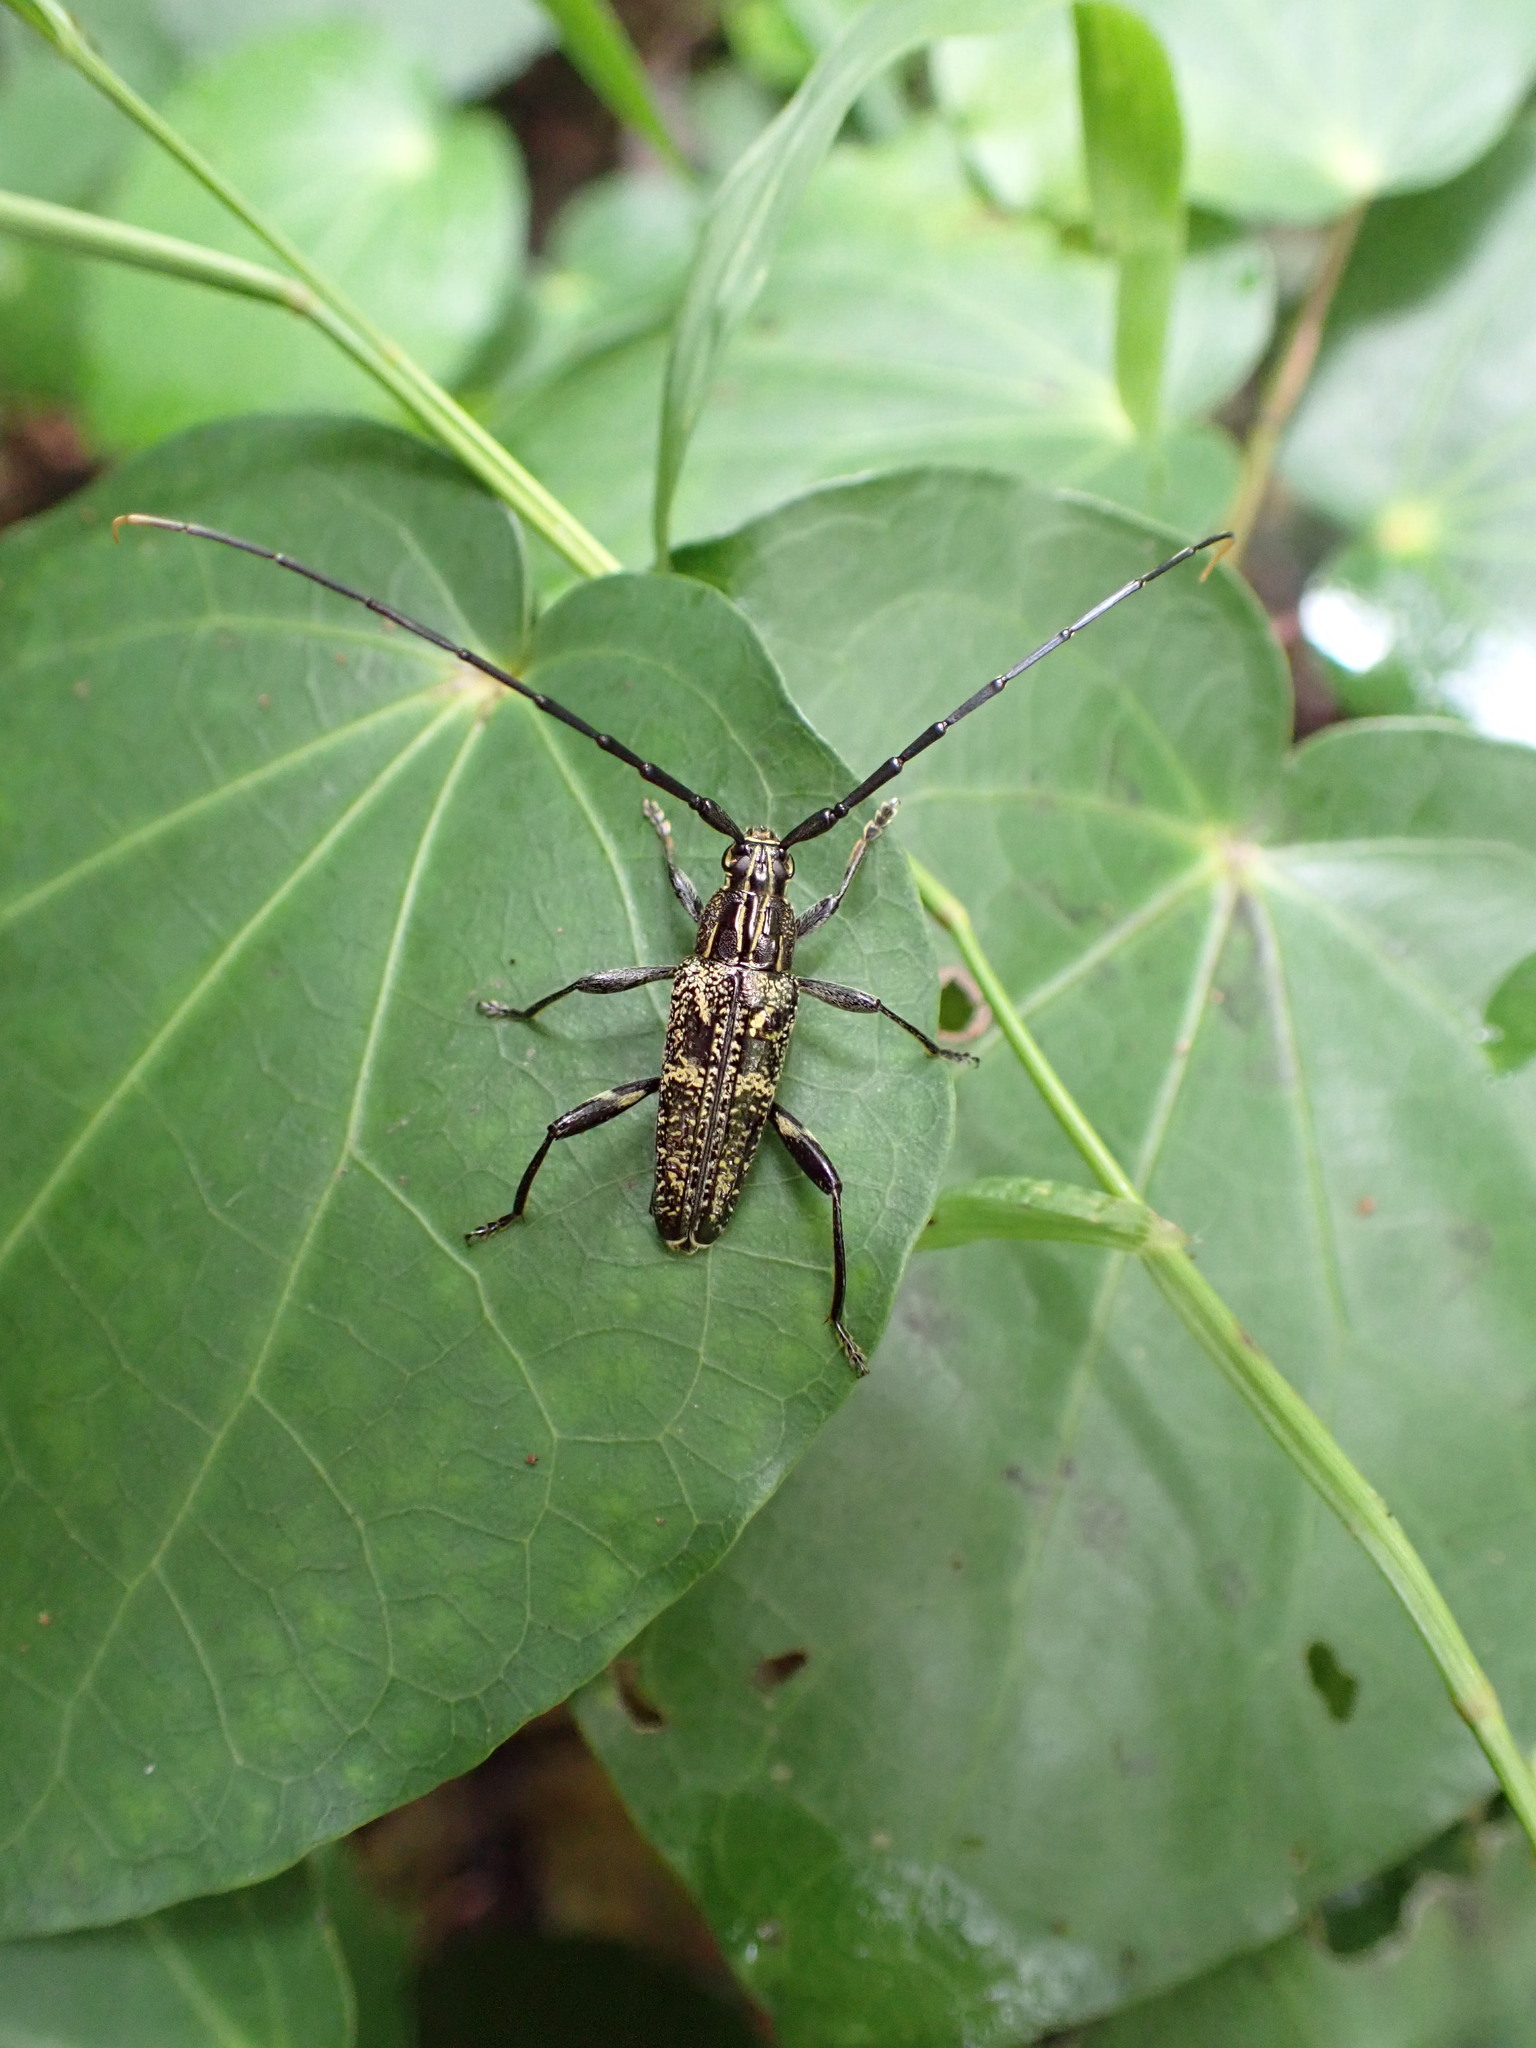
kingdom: Animalia
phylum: Arthropoda
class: Insecta
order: Coleoptera
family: Cerambycidae
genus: Coptomma
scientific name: Coptomma variegatum
